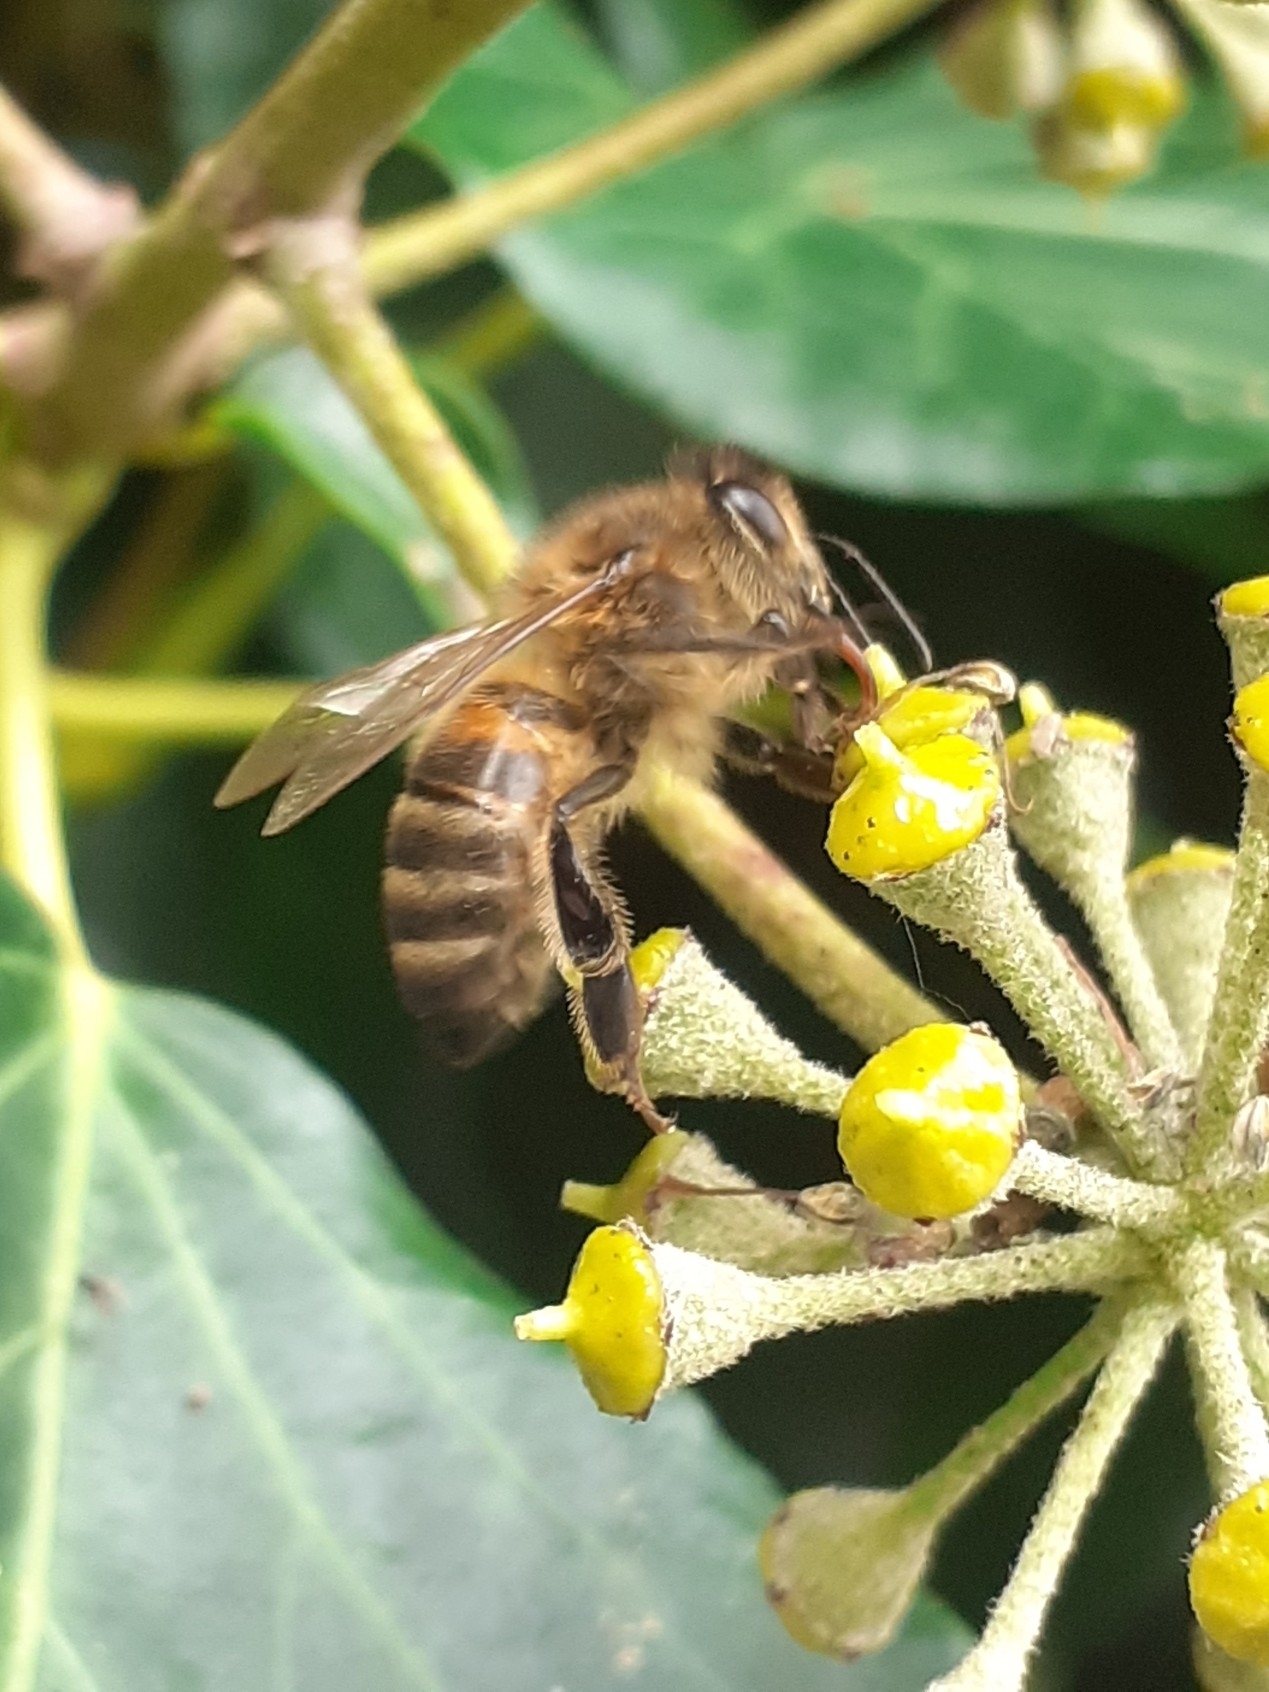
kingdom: Animalia
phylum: Arthropoda
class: Insecta
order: Hymenoptera
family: Apidae
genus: Apis
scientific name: Apis mellifera
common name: Honey bee
